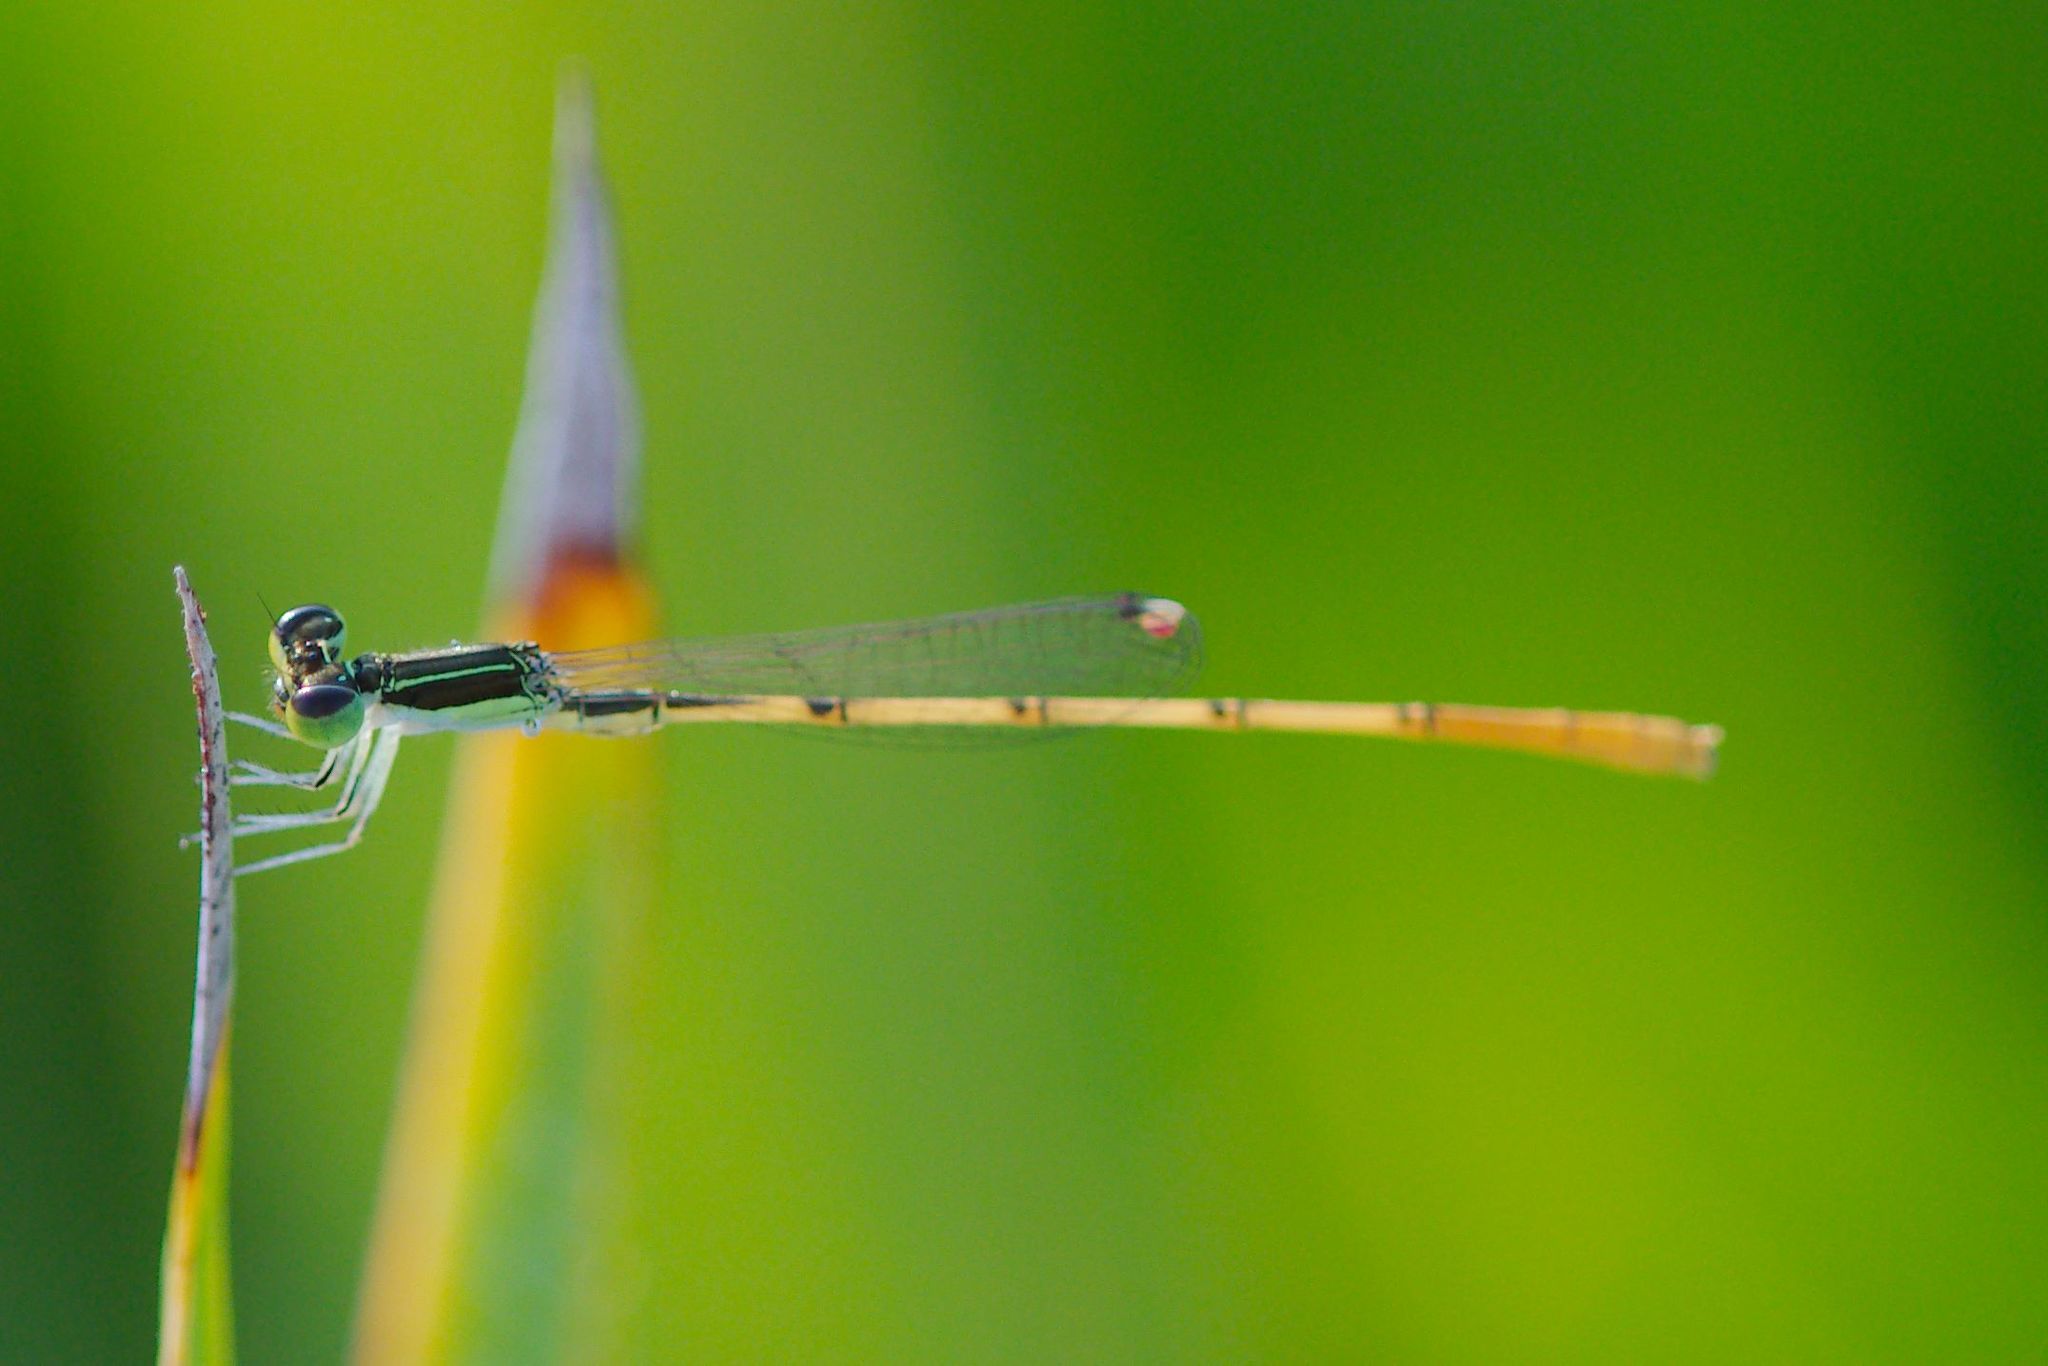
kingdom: Animalia
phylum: Arthropoda
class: Insecta
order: Odonata
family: Coenagrionidae
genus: Ischnura
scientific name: Ischnura hastata
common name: Citrine forktail
